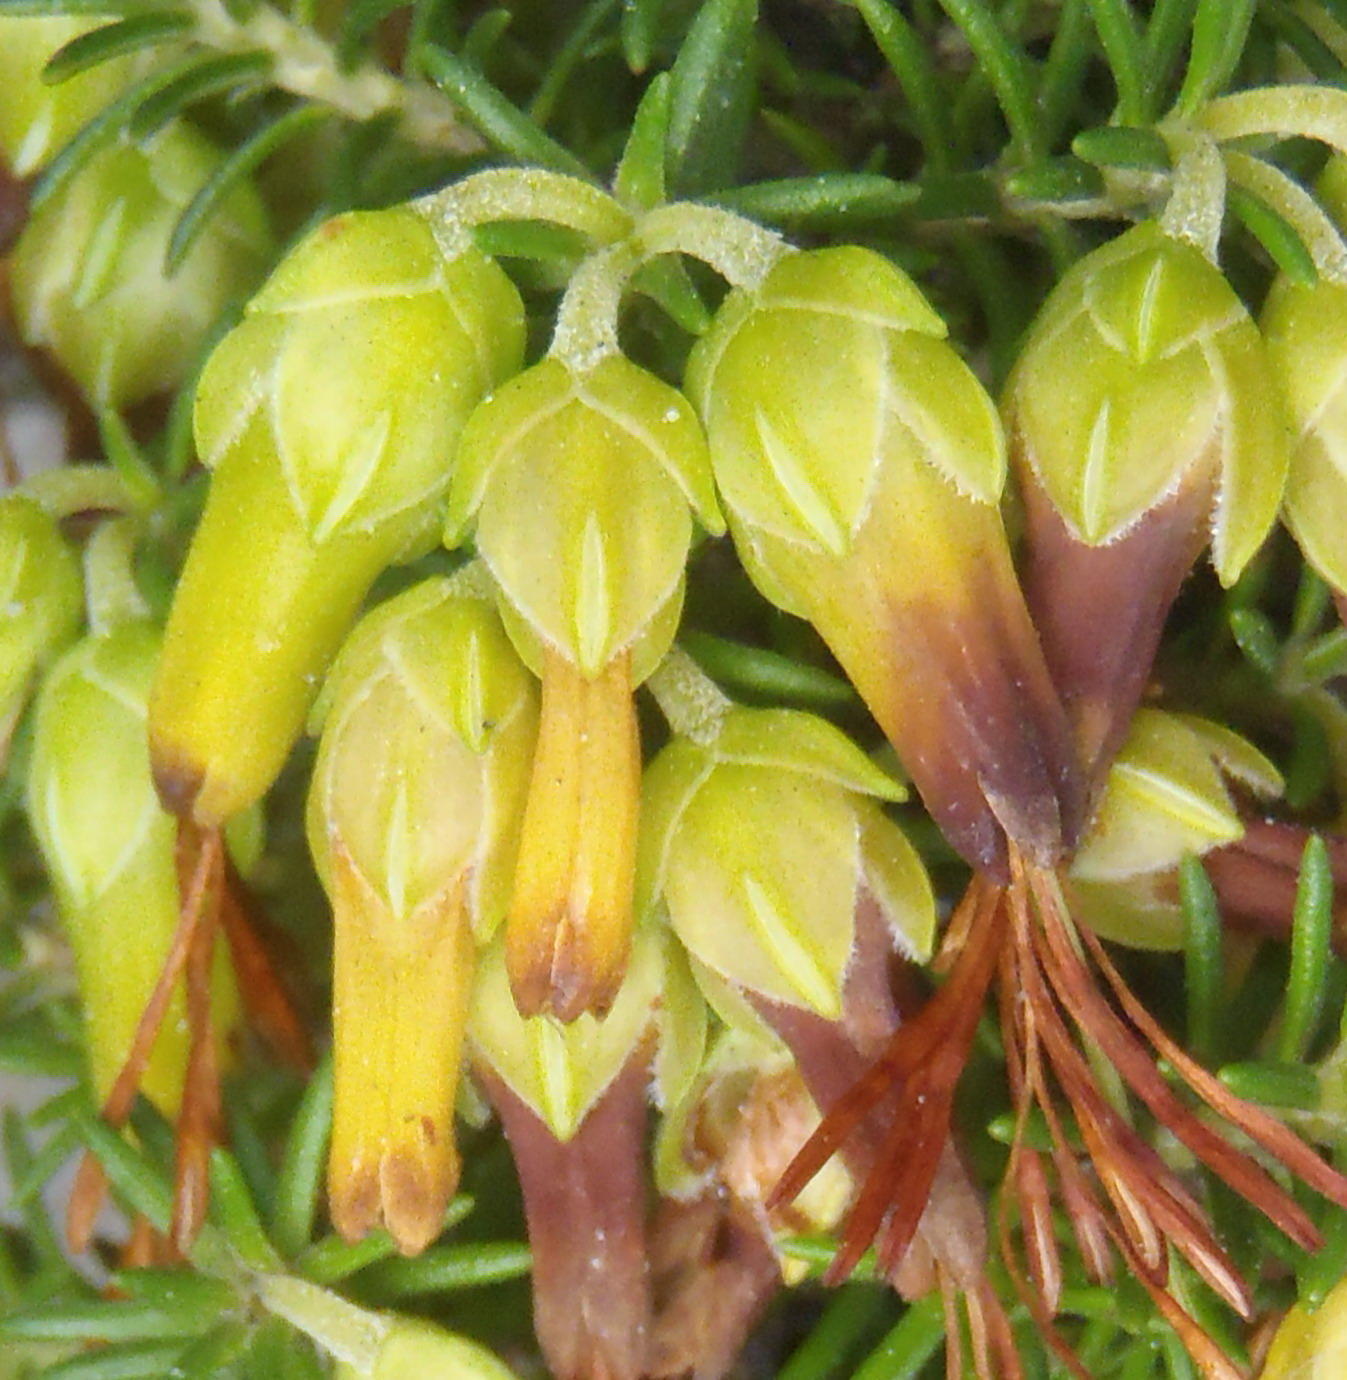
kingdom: Plantae
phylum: Tracheophyta
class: Magnoliopsida
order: Ericales
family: Ericaceae
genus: Erica
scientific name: Erica coccinea
